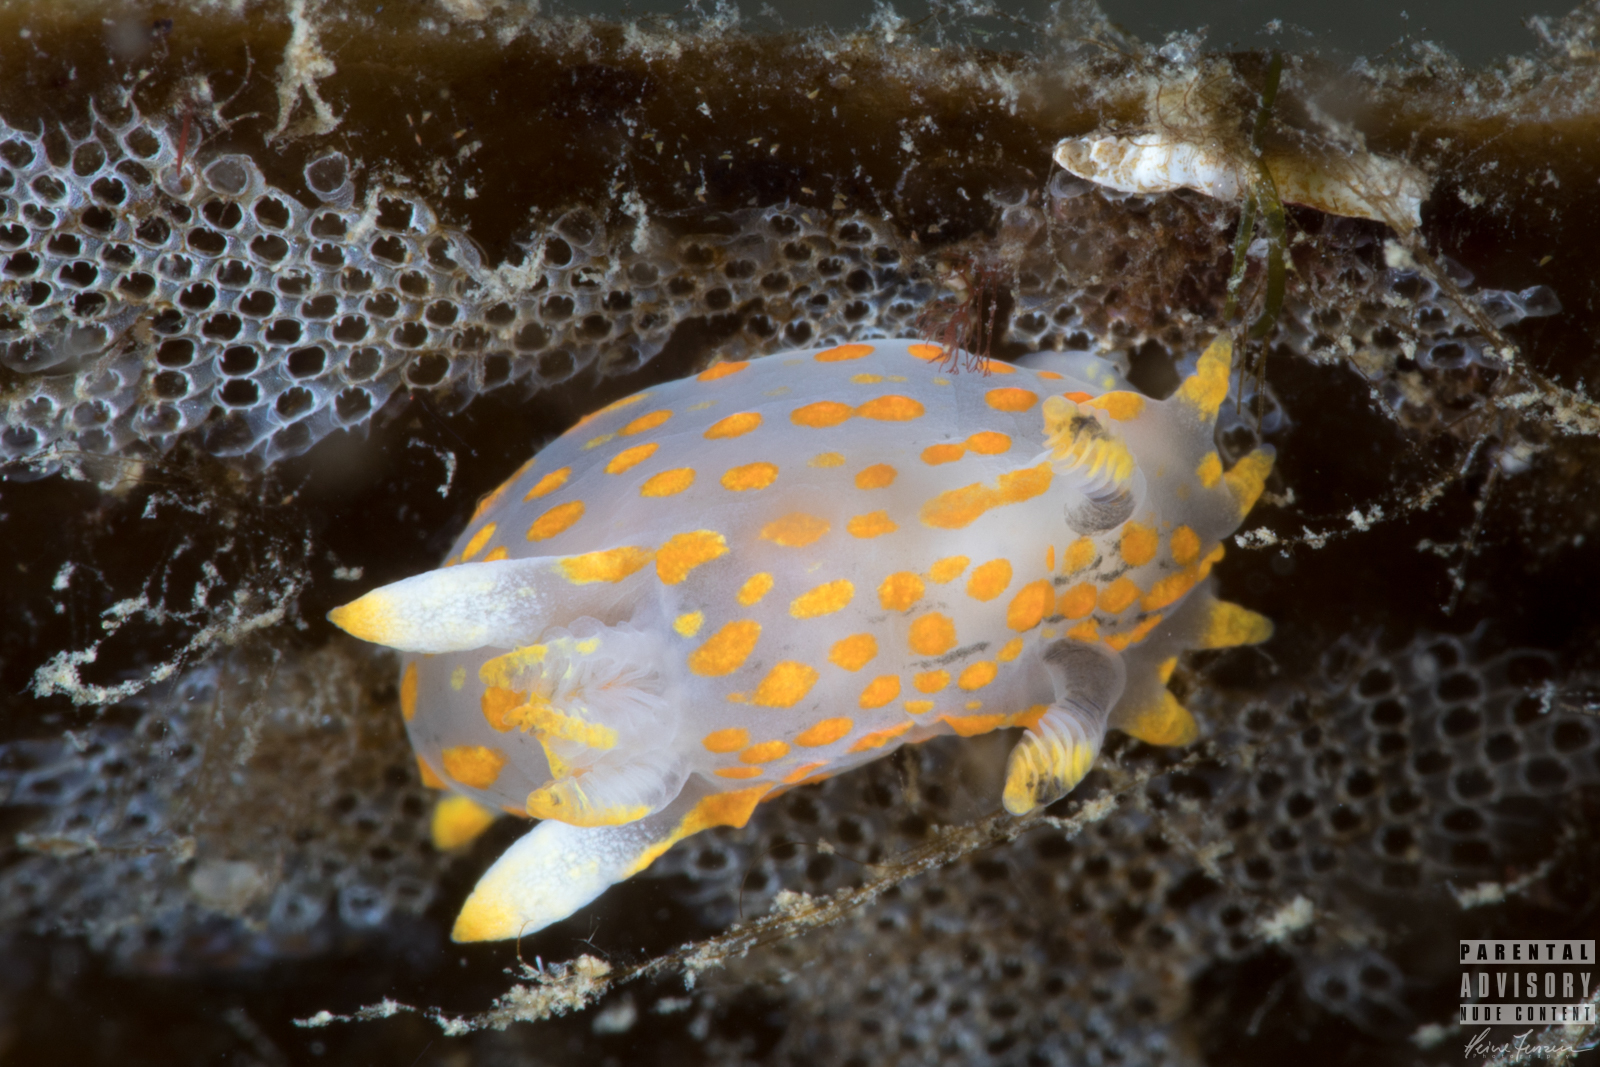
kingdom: Animalia
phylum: Mollusca
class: Gastropoda
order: Nudibranchia
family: Polyceridae
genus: Polycera
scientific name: Polycera quadrilineata
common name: Four-striped polycera
